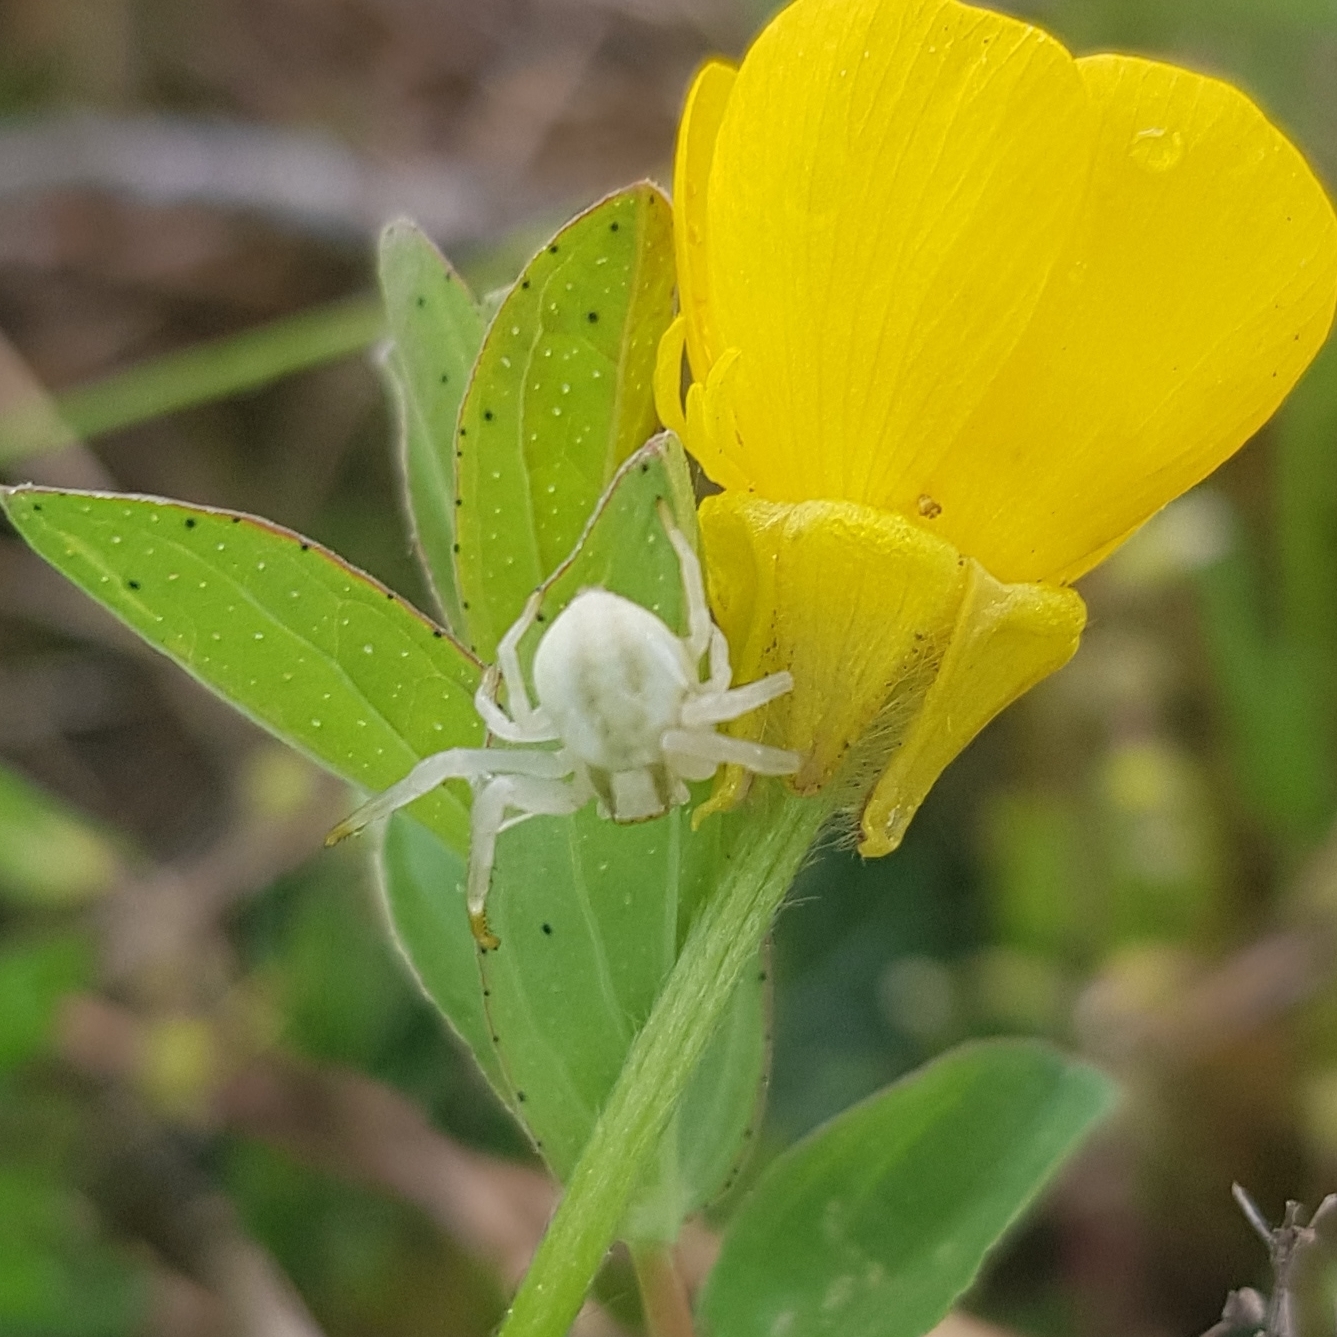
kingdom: Animalia
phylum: Arthropoda
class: Arachnida
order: Araneae
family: Thomisidae
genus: Misumena
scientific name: Misumena vatia
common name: Goldenrod crab spider
